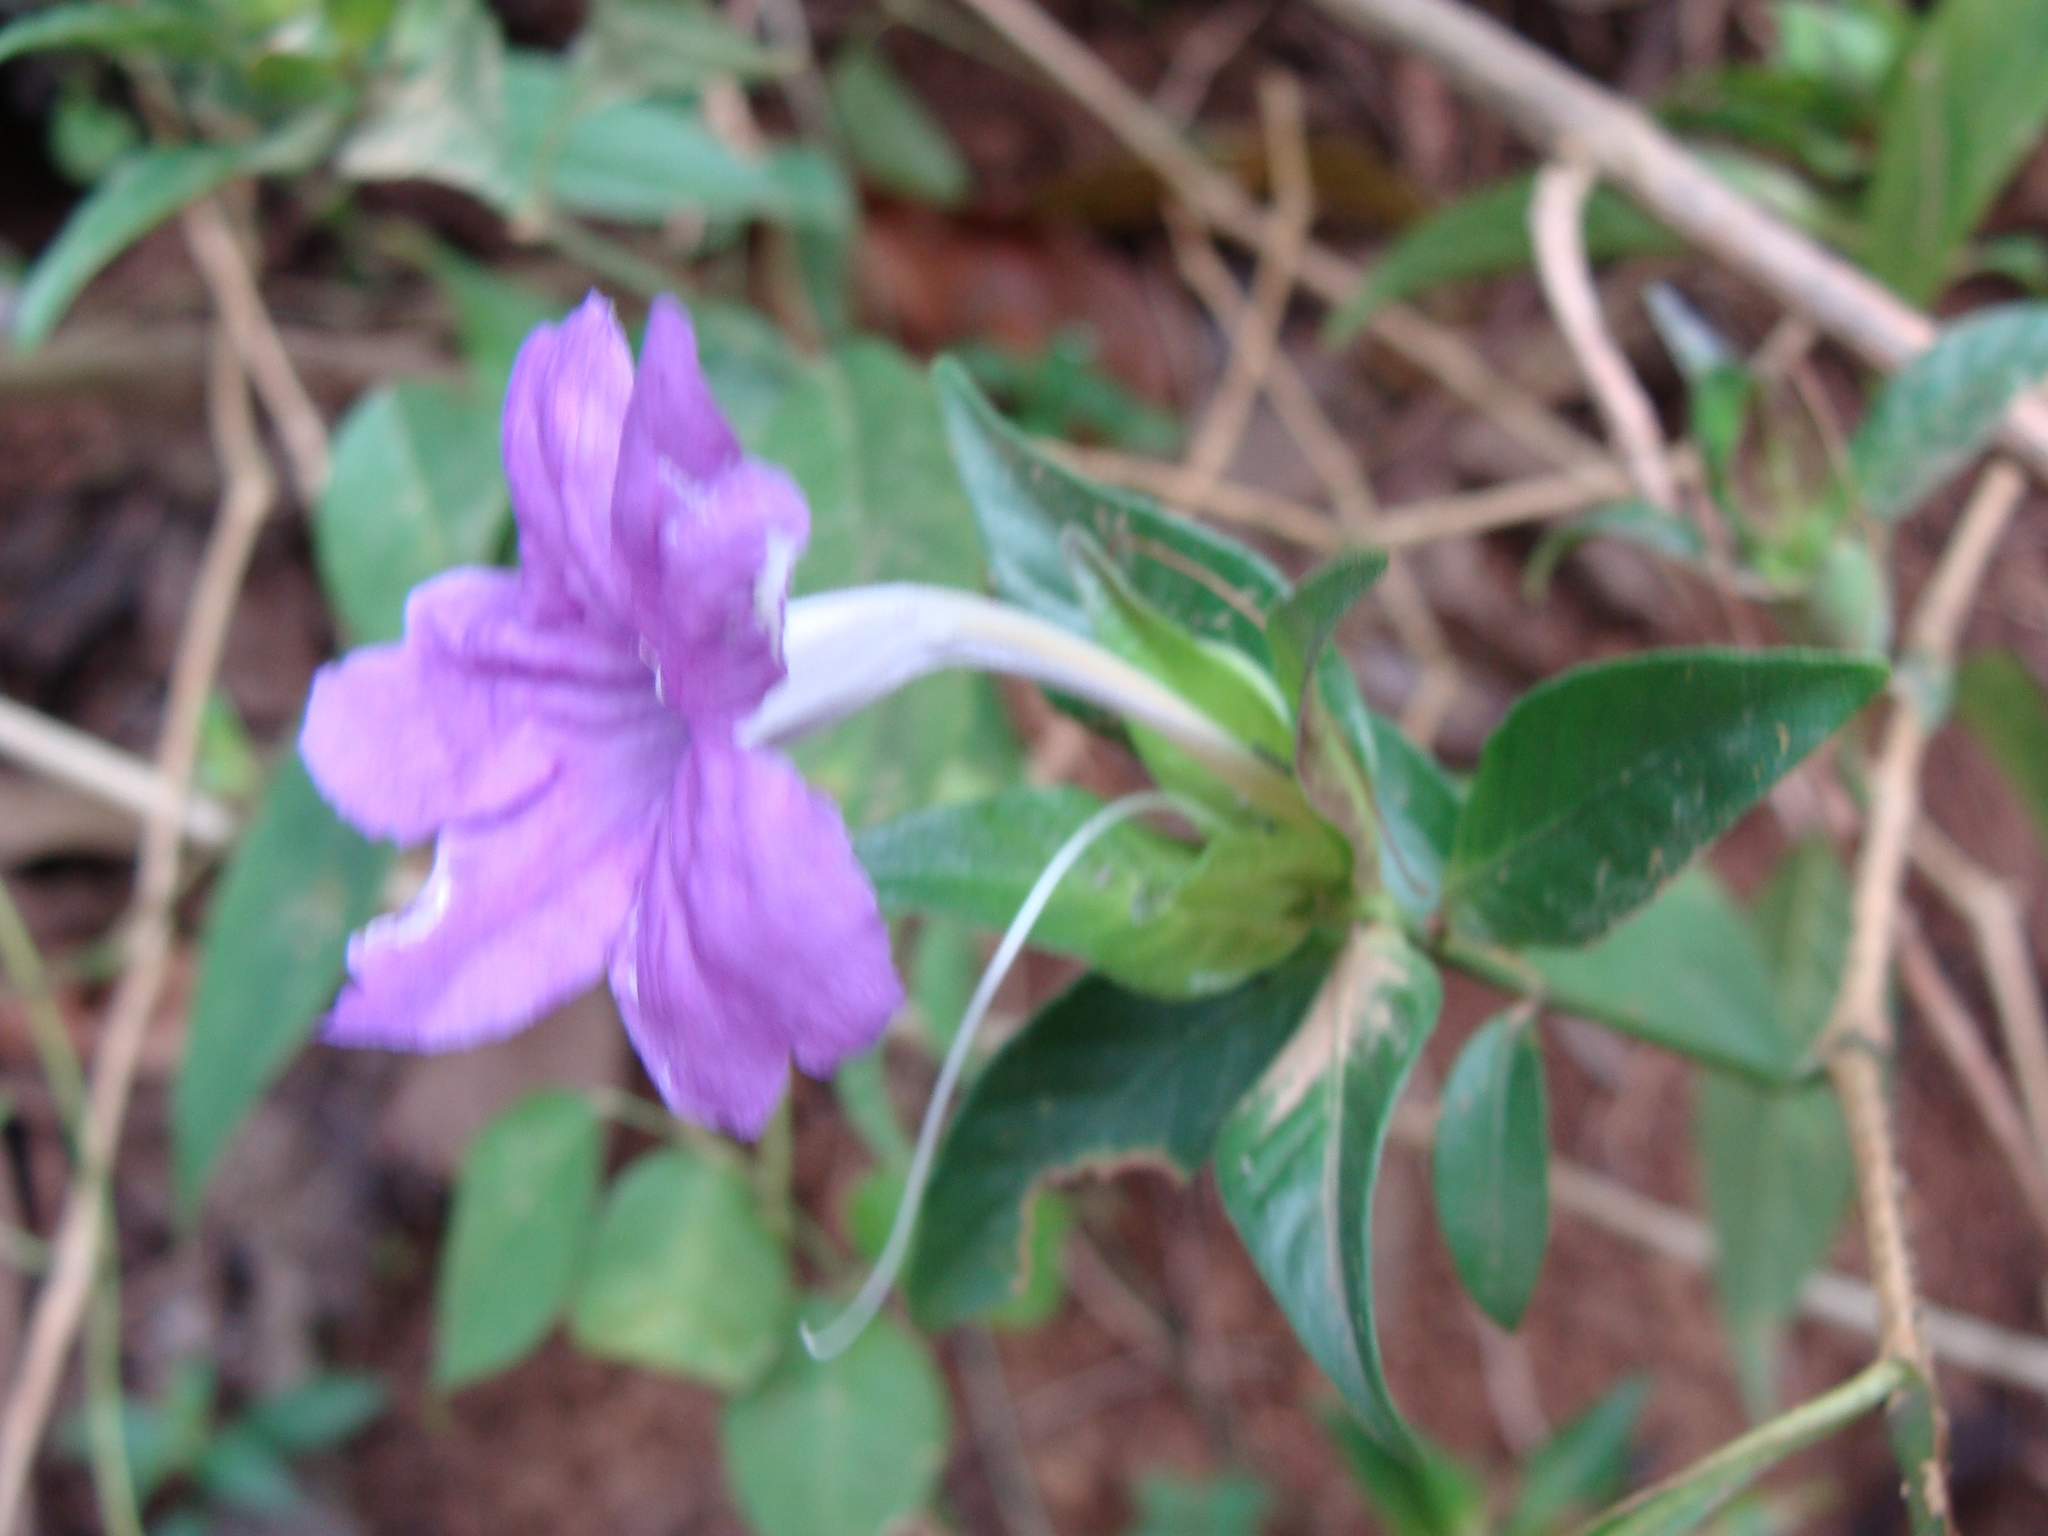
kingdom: Plantae
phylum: Tracheophyta
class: Magnoliopsida
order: Lamiales
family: Acanthaceae
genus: Ruellia
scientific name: Ruellia matagalpae
